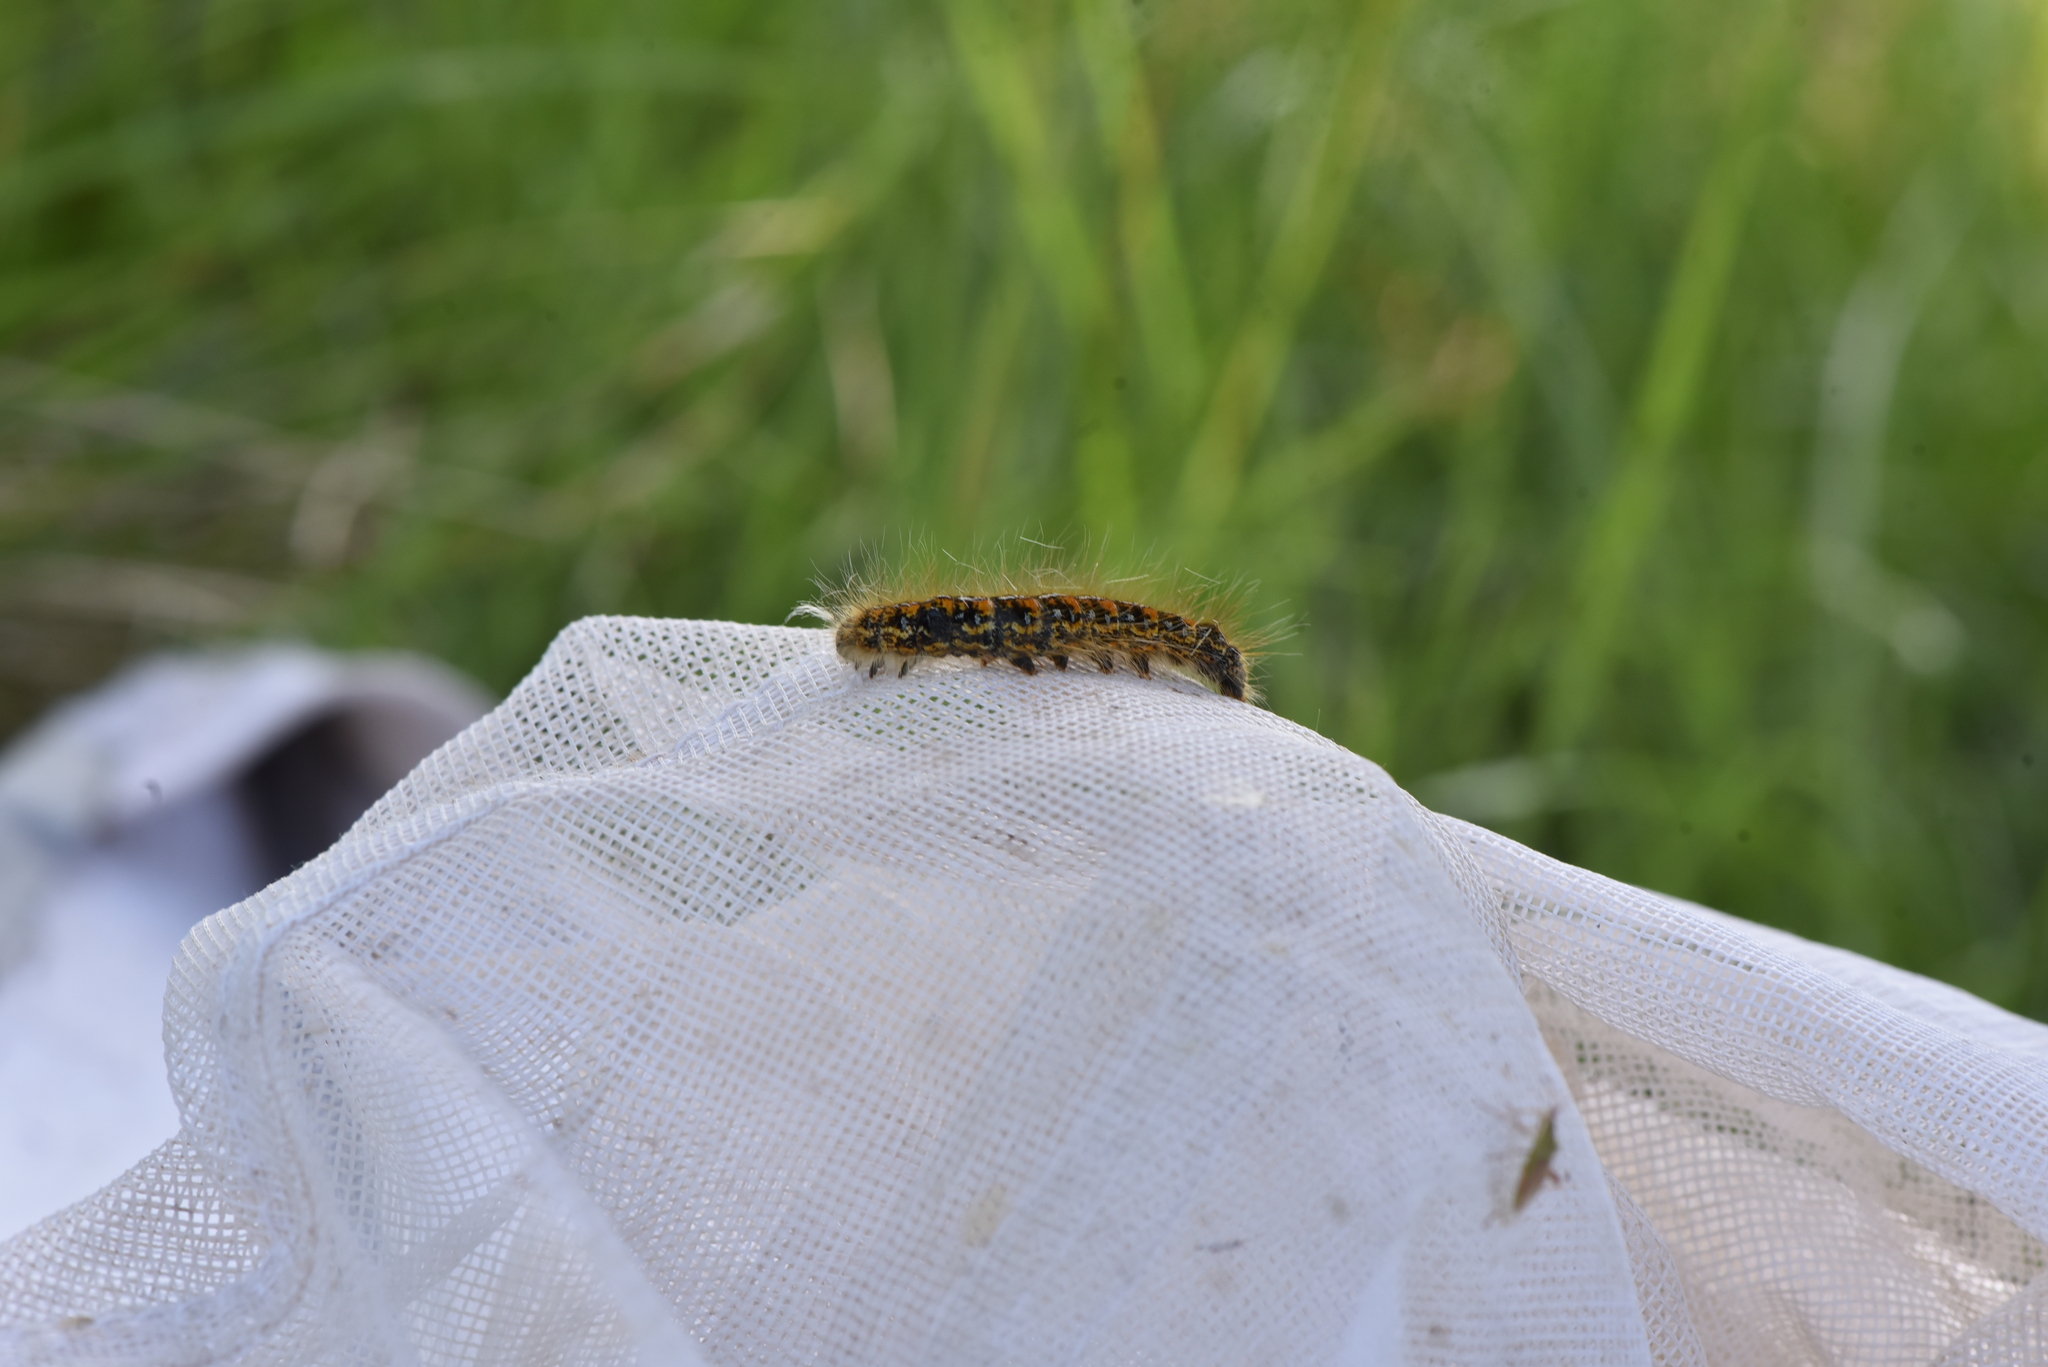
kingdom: Animalia
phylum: Arthropoda
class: Insecta
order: Lepidoptera
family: Lasiocampidae
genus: Malacosoma
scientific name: Malacosoma californica
